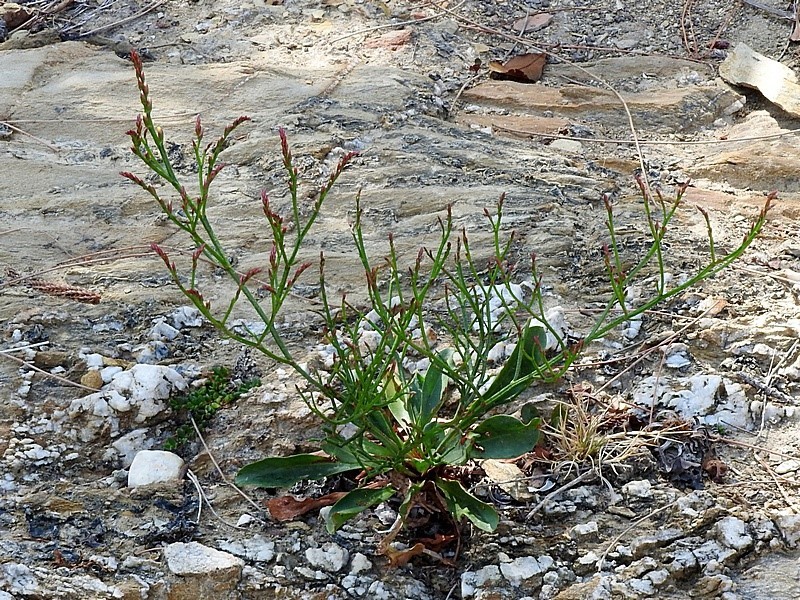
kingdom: Plantae
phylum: Tracheophyta
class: Magnoliopsida
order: Caryophyllales
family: Plumbaginaceae
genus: Limonium
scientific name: Limonium australe
